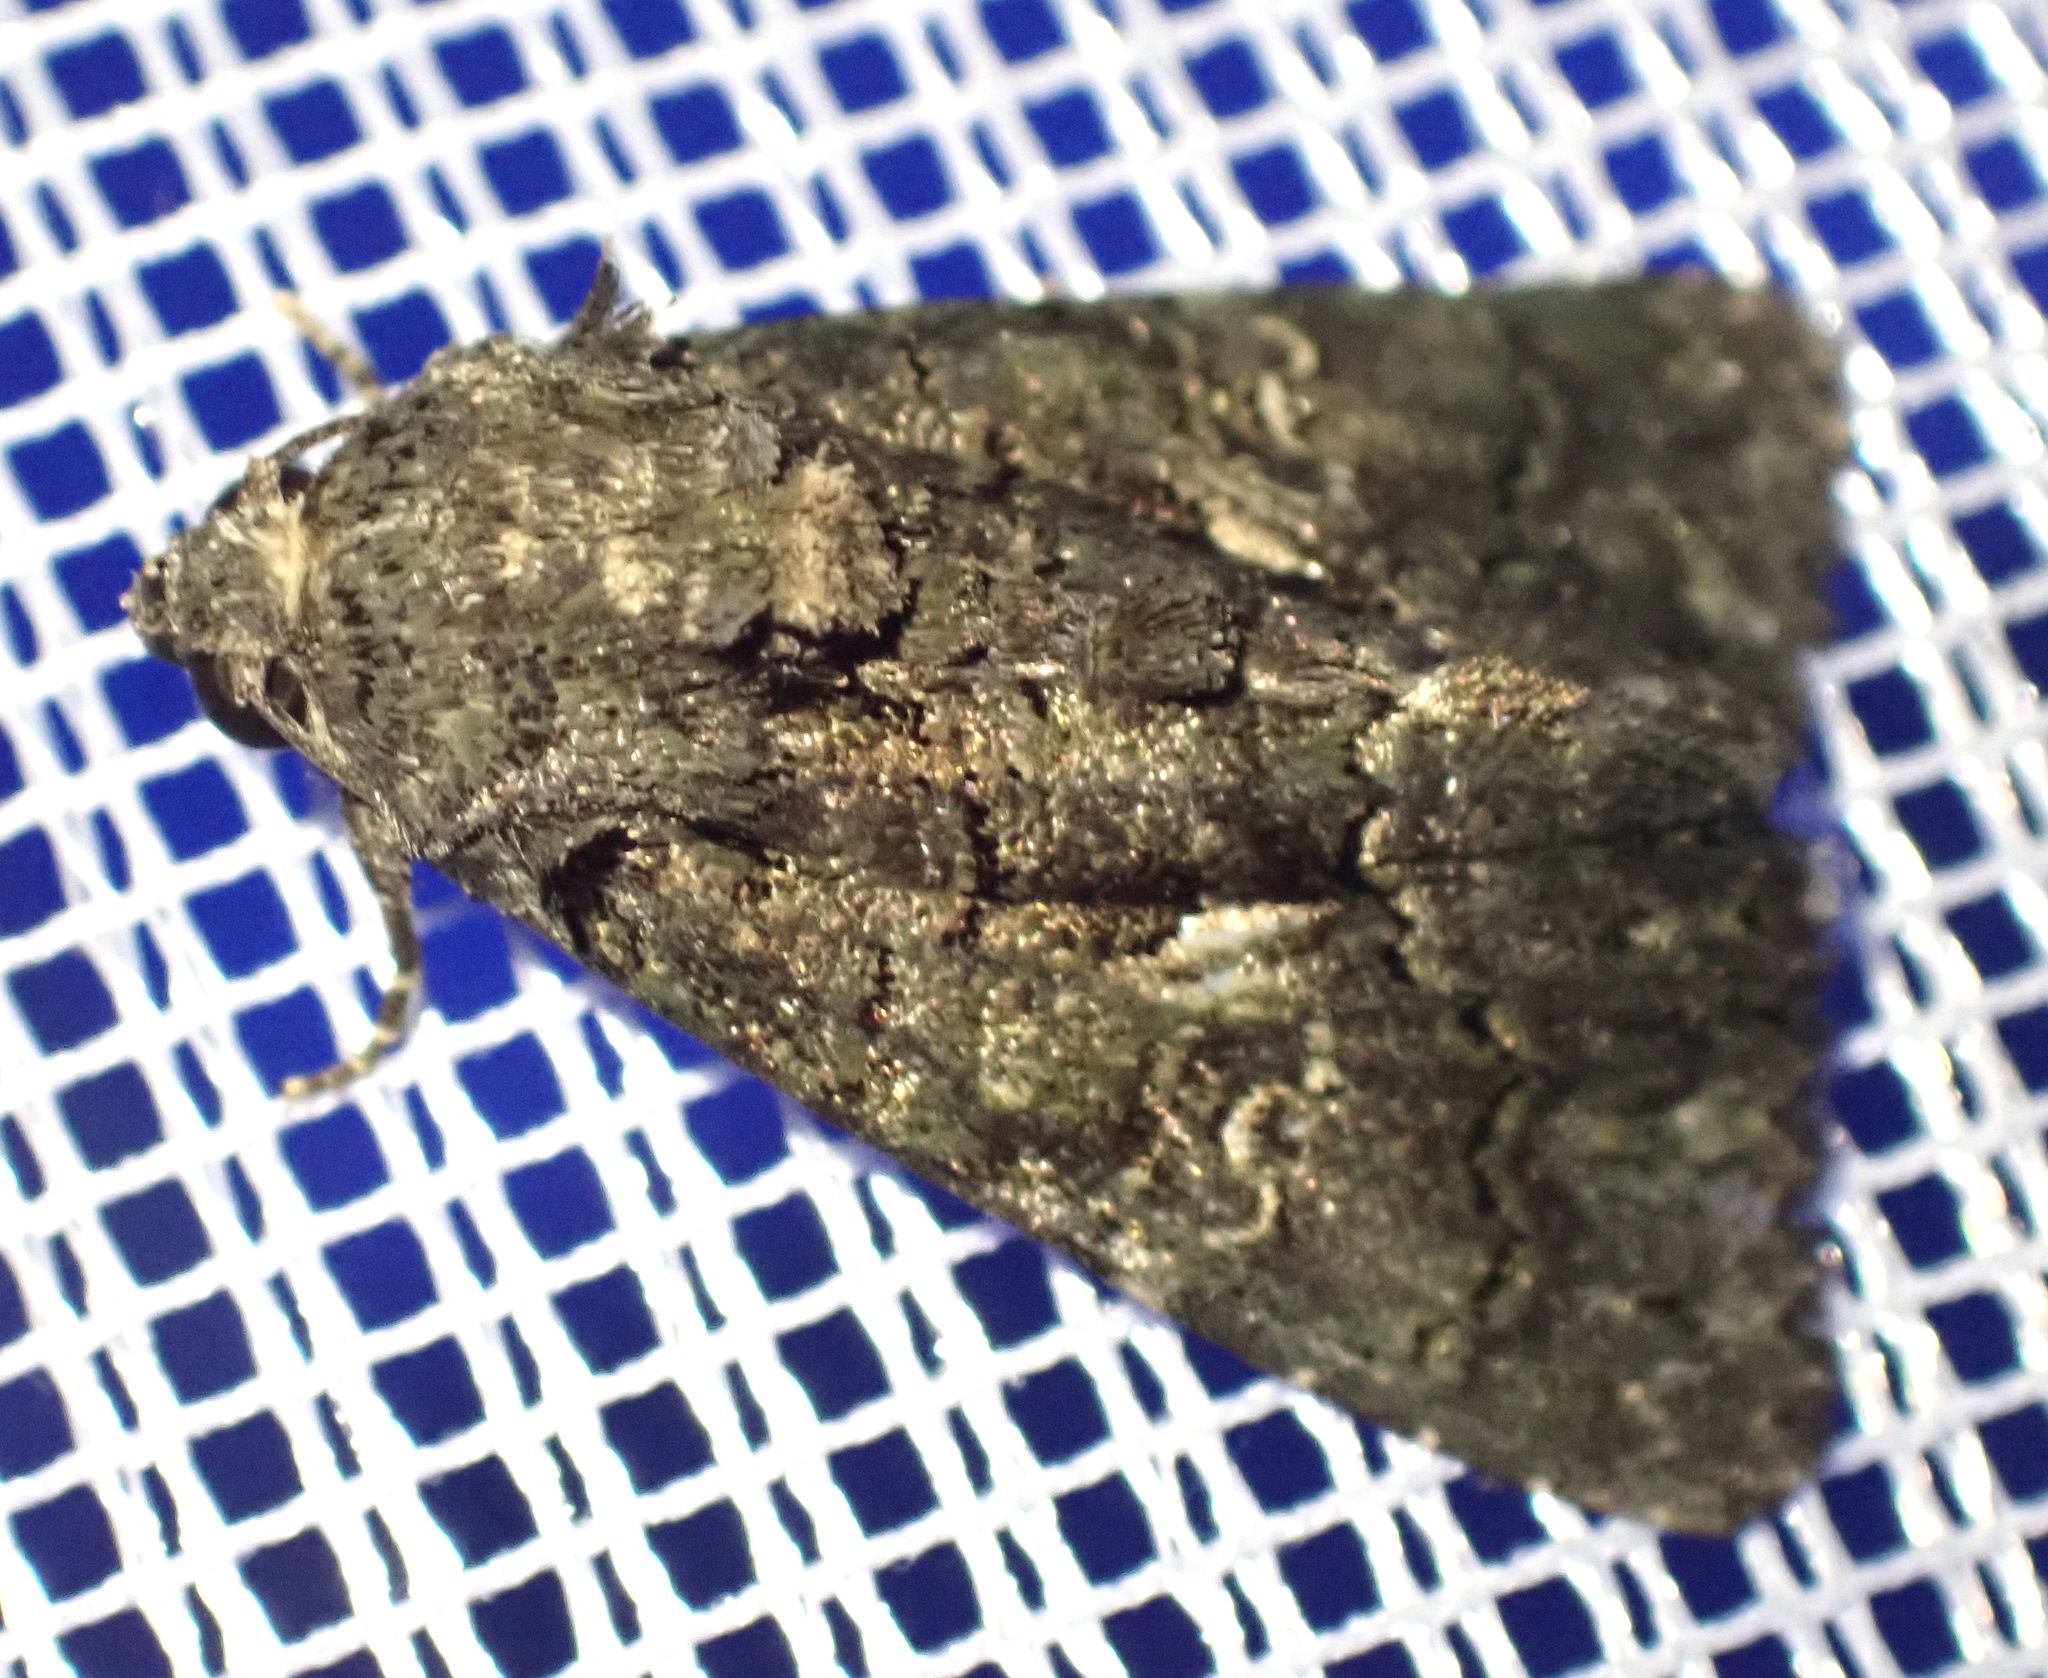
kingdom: Animalia
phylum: Arthropoda
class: Insecta
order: Lepidoptera
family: Noctuidae
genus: Aedia
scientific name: Aedia leucomelas
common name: Sorcerer
